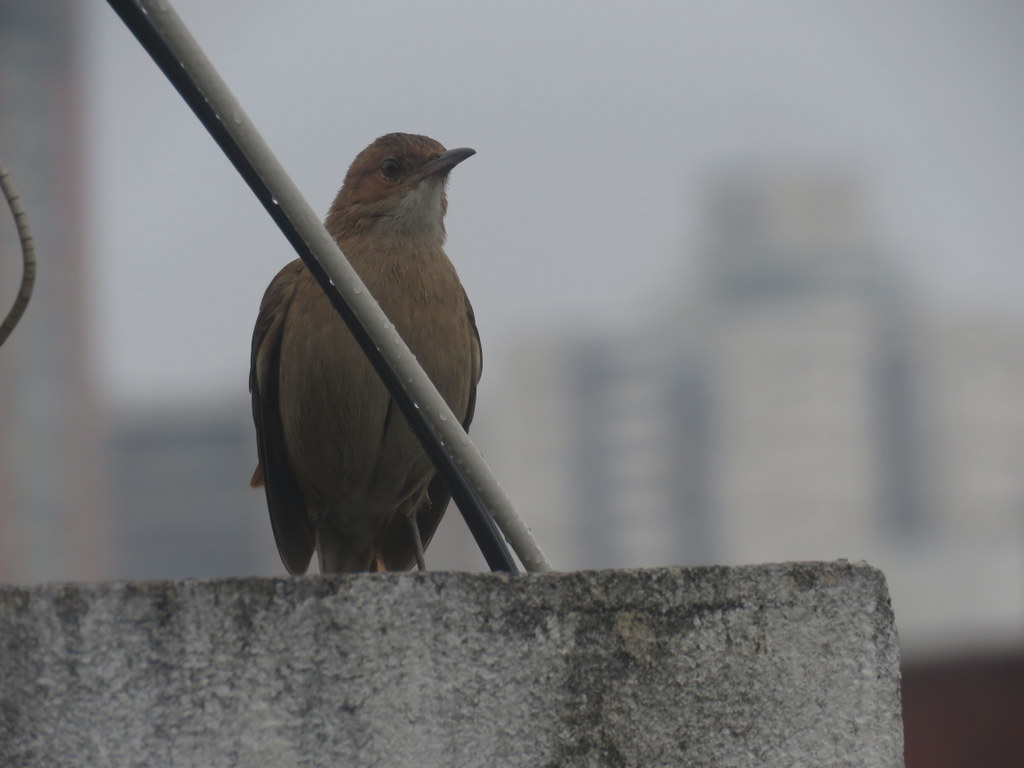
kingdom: Animalia
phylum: Chordata
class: Aves
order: Passeriformes
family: Furnariidae
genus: Furnarius
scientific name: Furnarius rufus
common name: Rufous hornero
